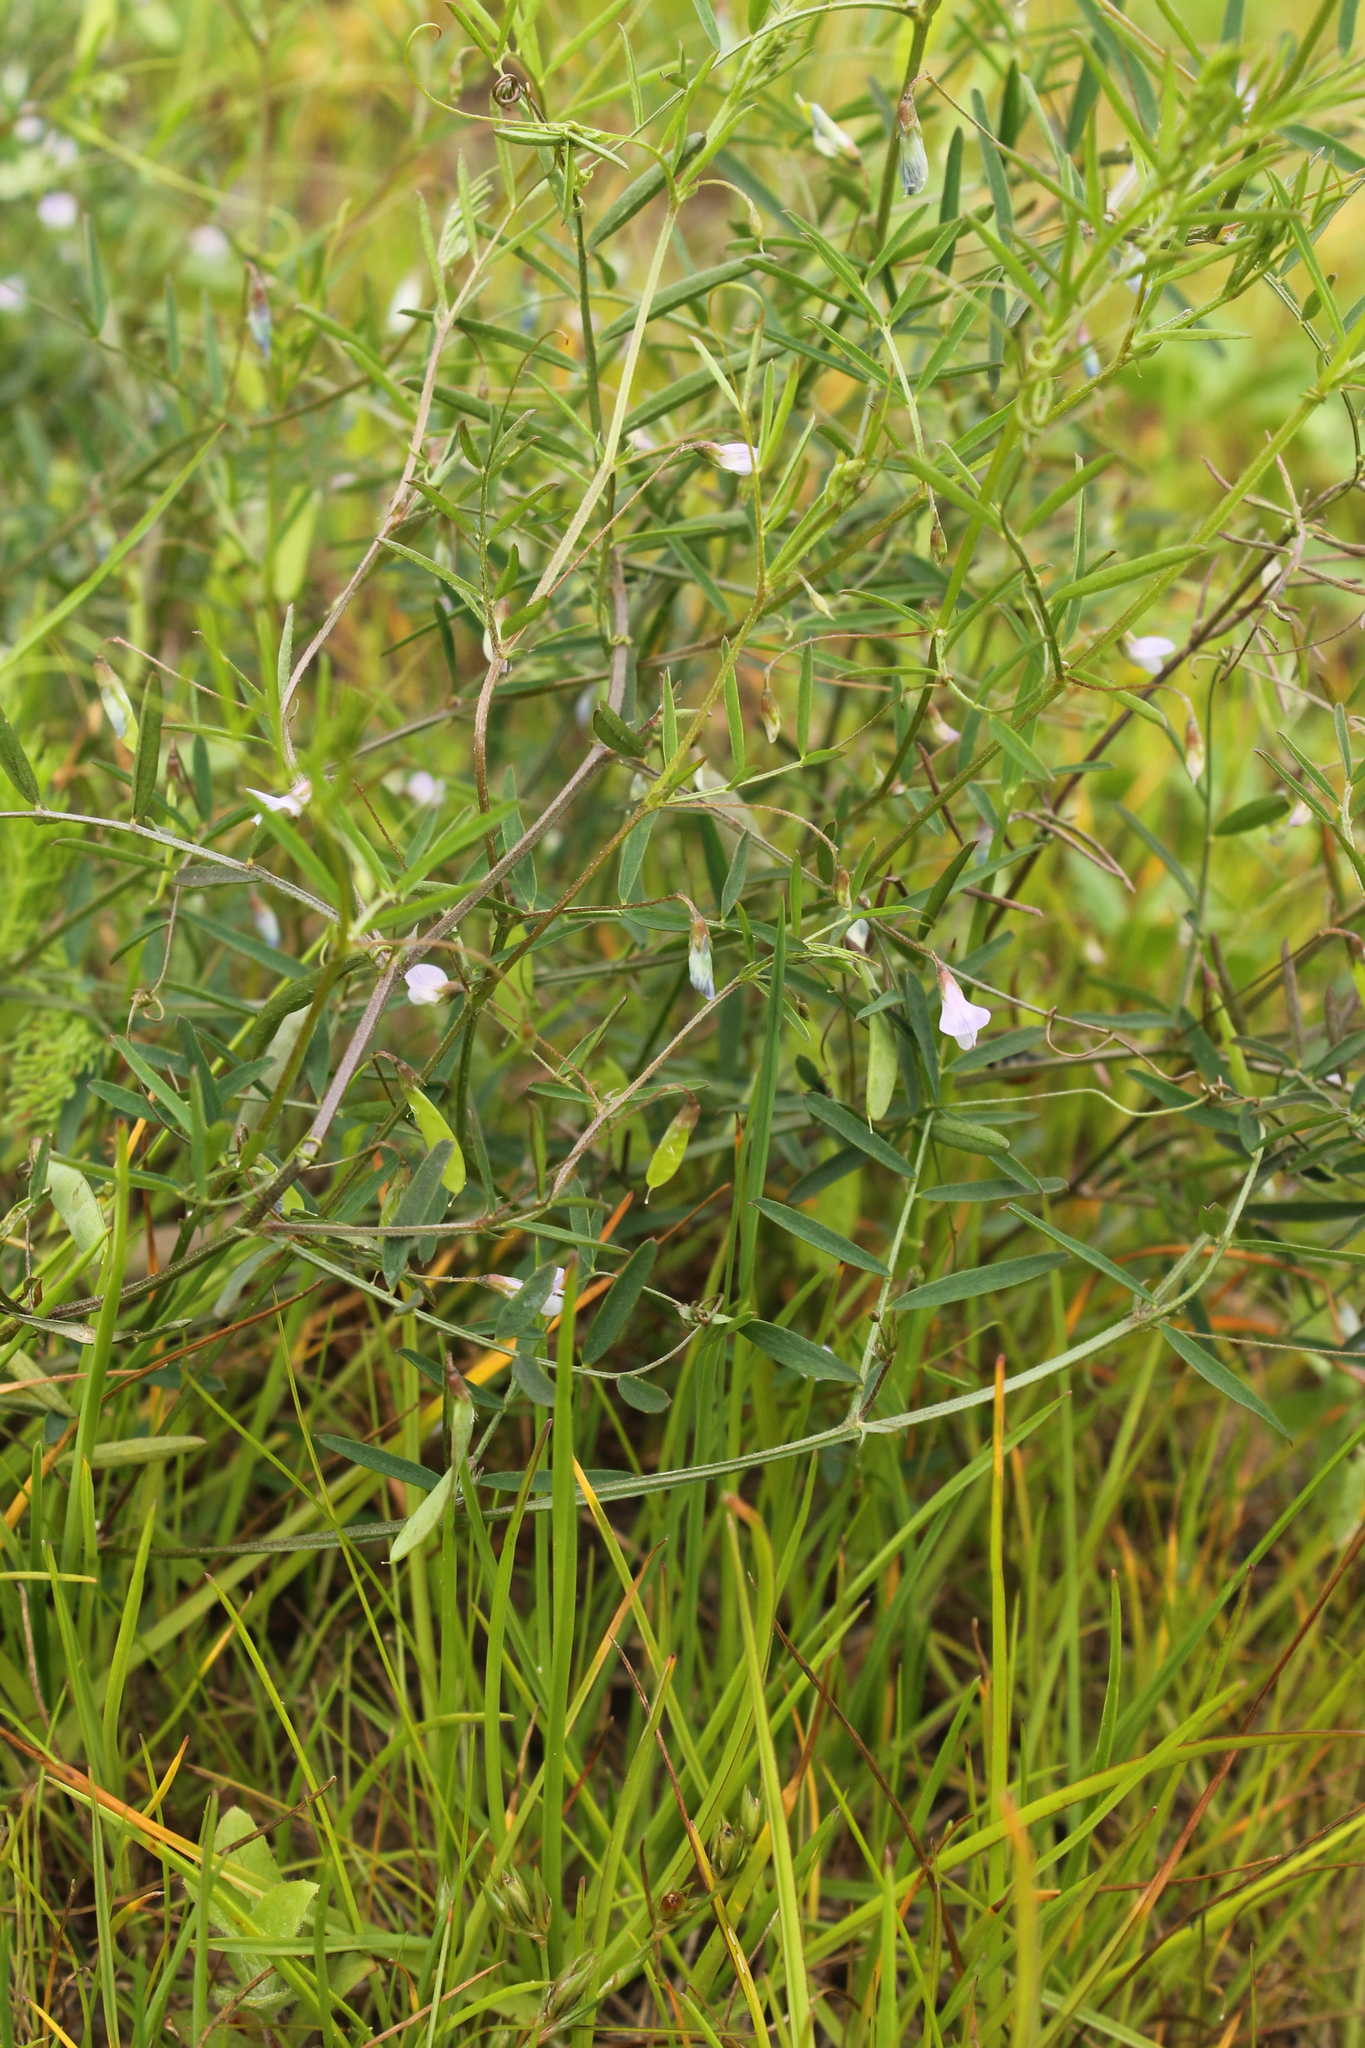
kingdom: Plantae
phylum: Tracheophyta
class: Magnoliopsida
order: Fabales
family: Fabaceae
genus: Vicia
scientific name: Vicia tetrasperma
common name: Smooth tare
